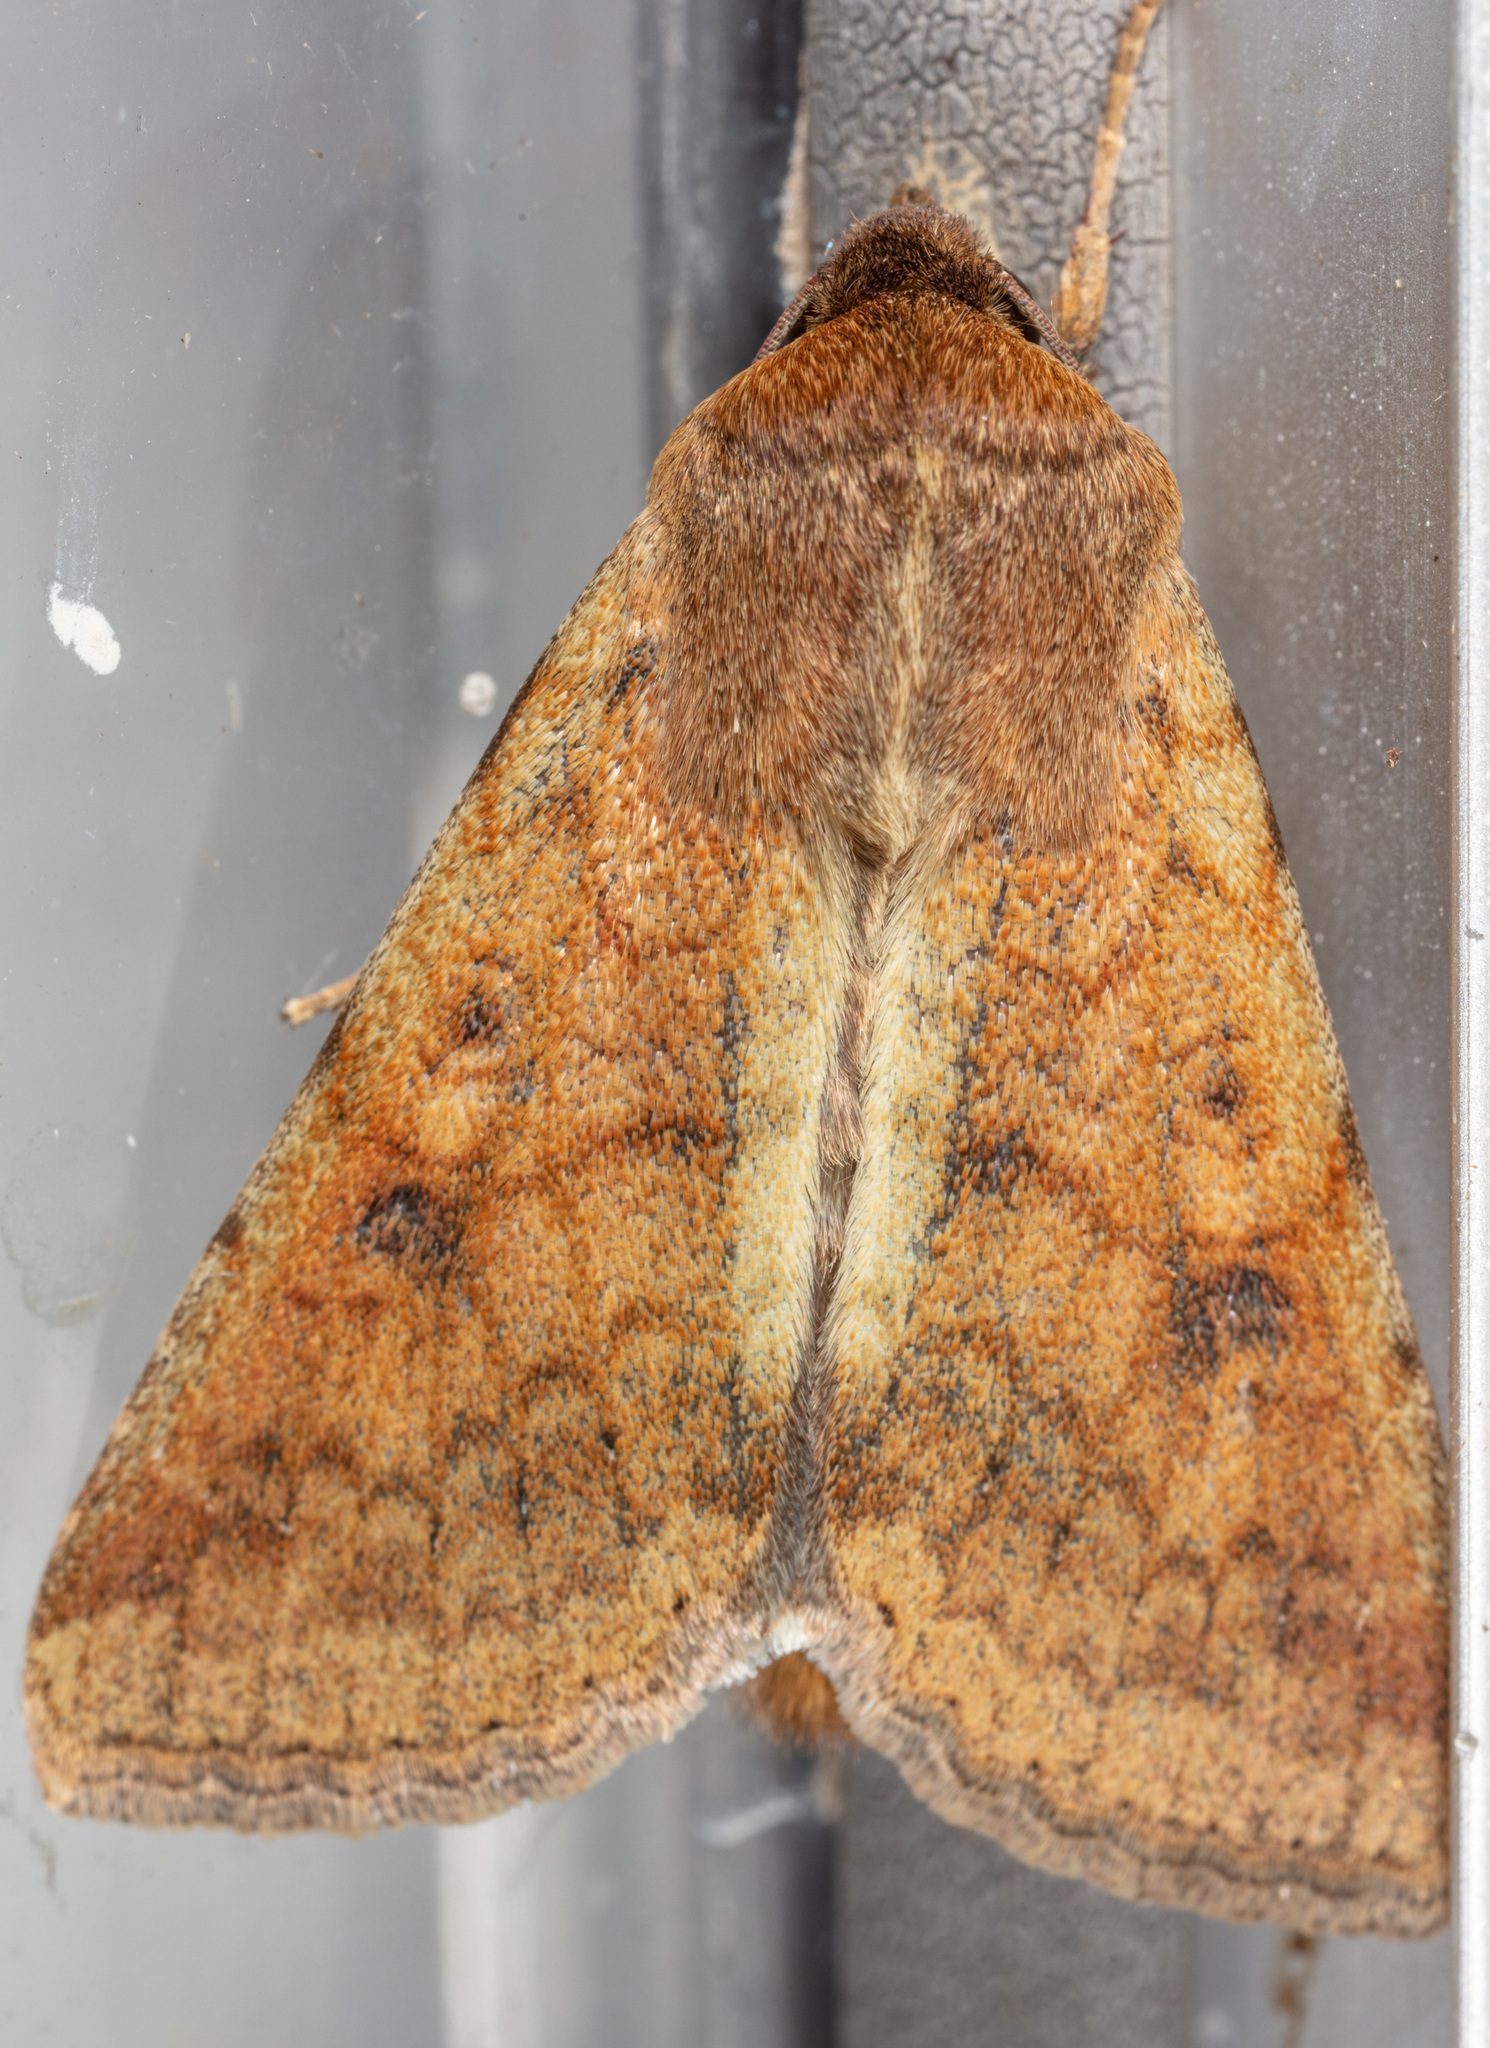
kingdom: Animalia
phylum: Arthropoda
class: Insecta
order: Lepidoptera
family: Noctuidae
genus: Helicoverpa
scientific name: Helicoverpa zea
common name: Bollworm
